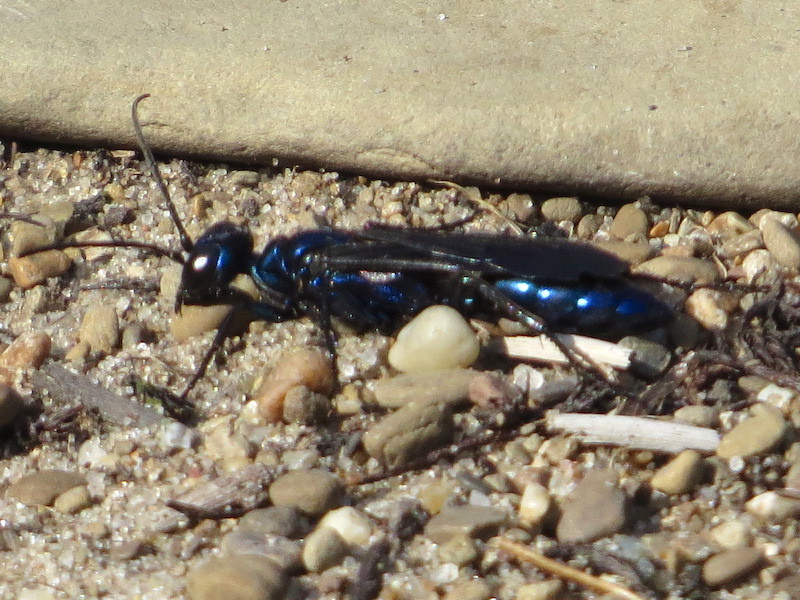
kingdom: Animalia
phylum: Arthropoda
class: Insecta
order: Hymenoptera
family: Sphecidae
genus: Chlorion
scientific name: Chlorion aerarium
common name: Steel-blue cricket hunter
